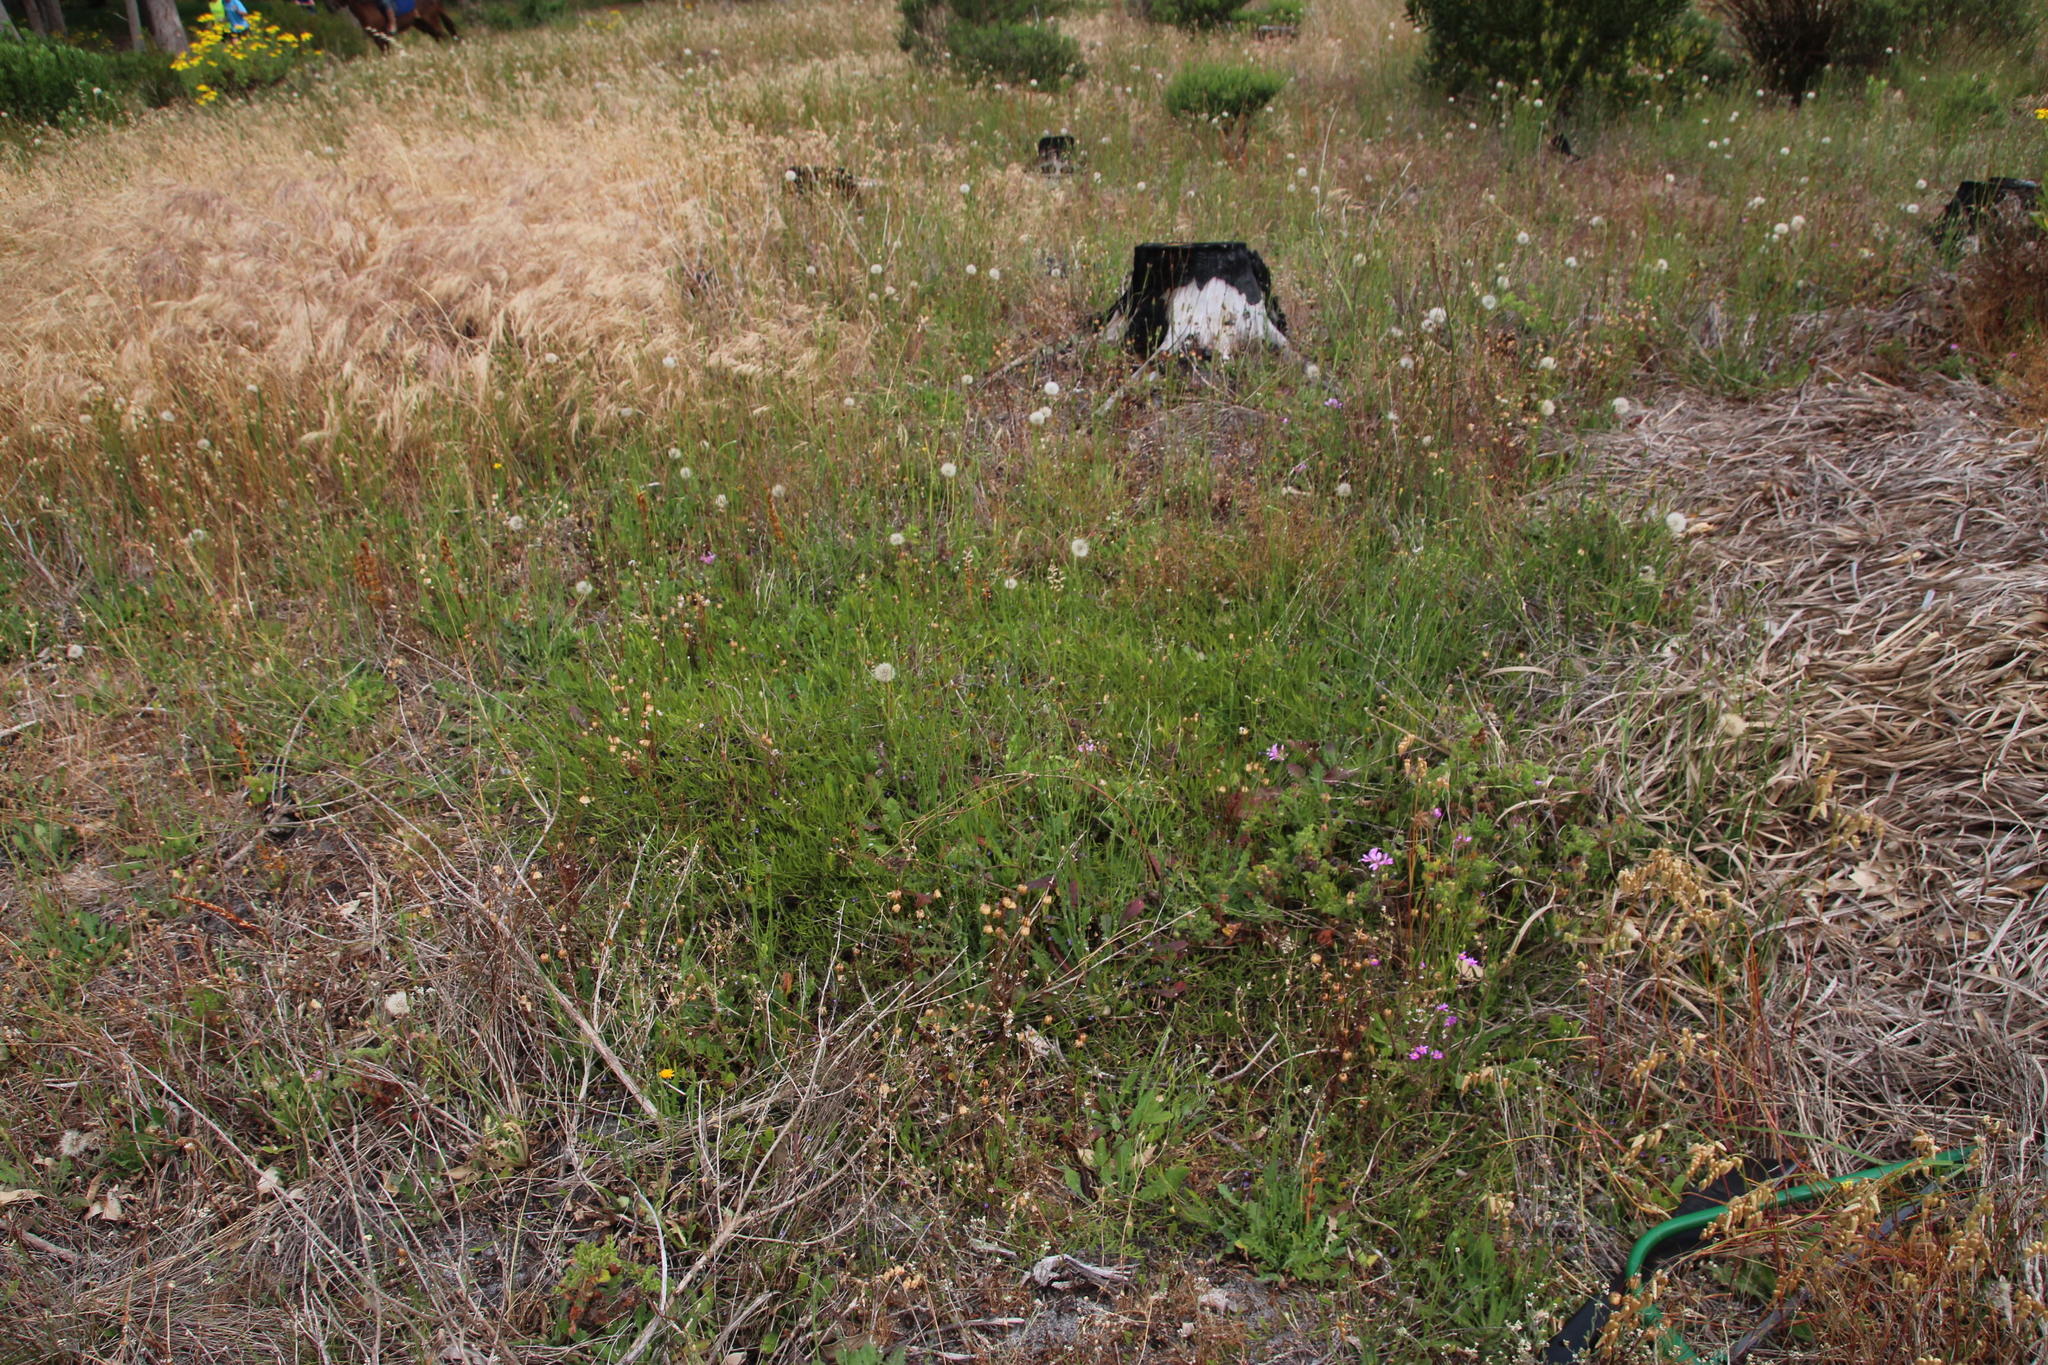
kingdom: Plantae
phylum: Tracheophyta
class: Magnoliopsida
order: Fabales
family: Fabaceae
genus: Psoralea
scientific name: Psoralea laxa
